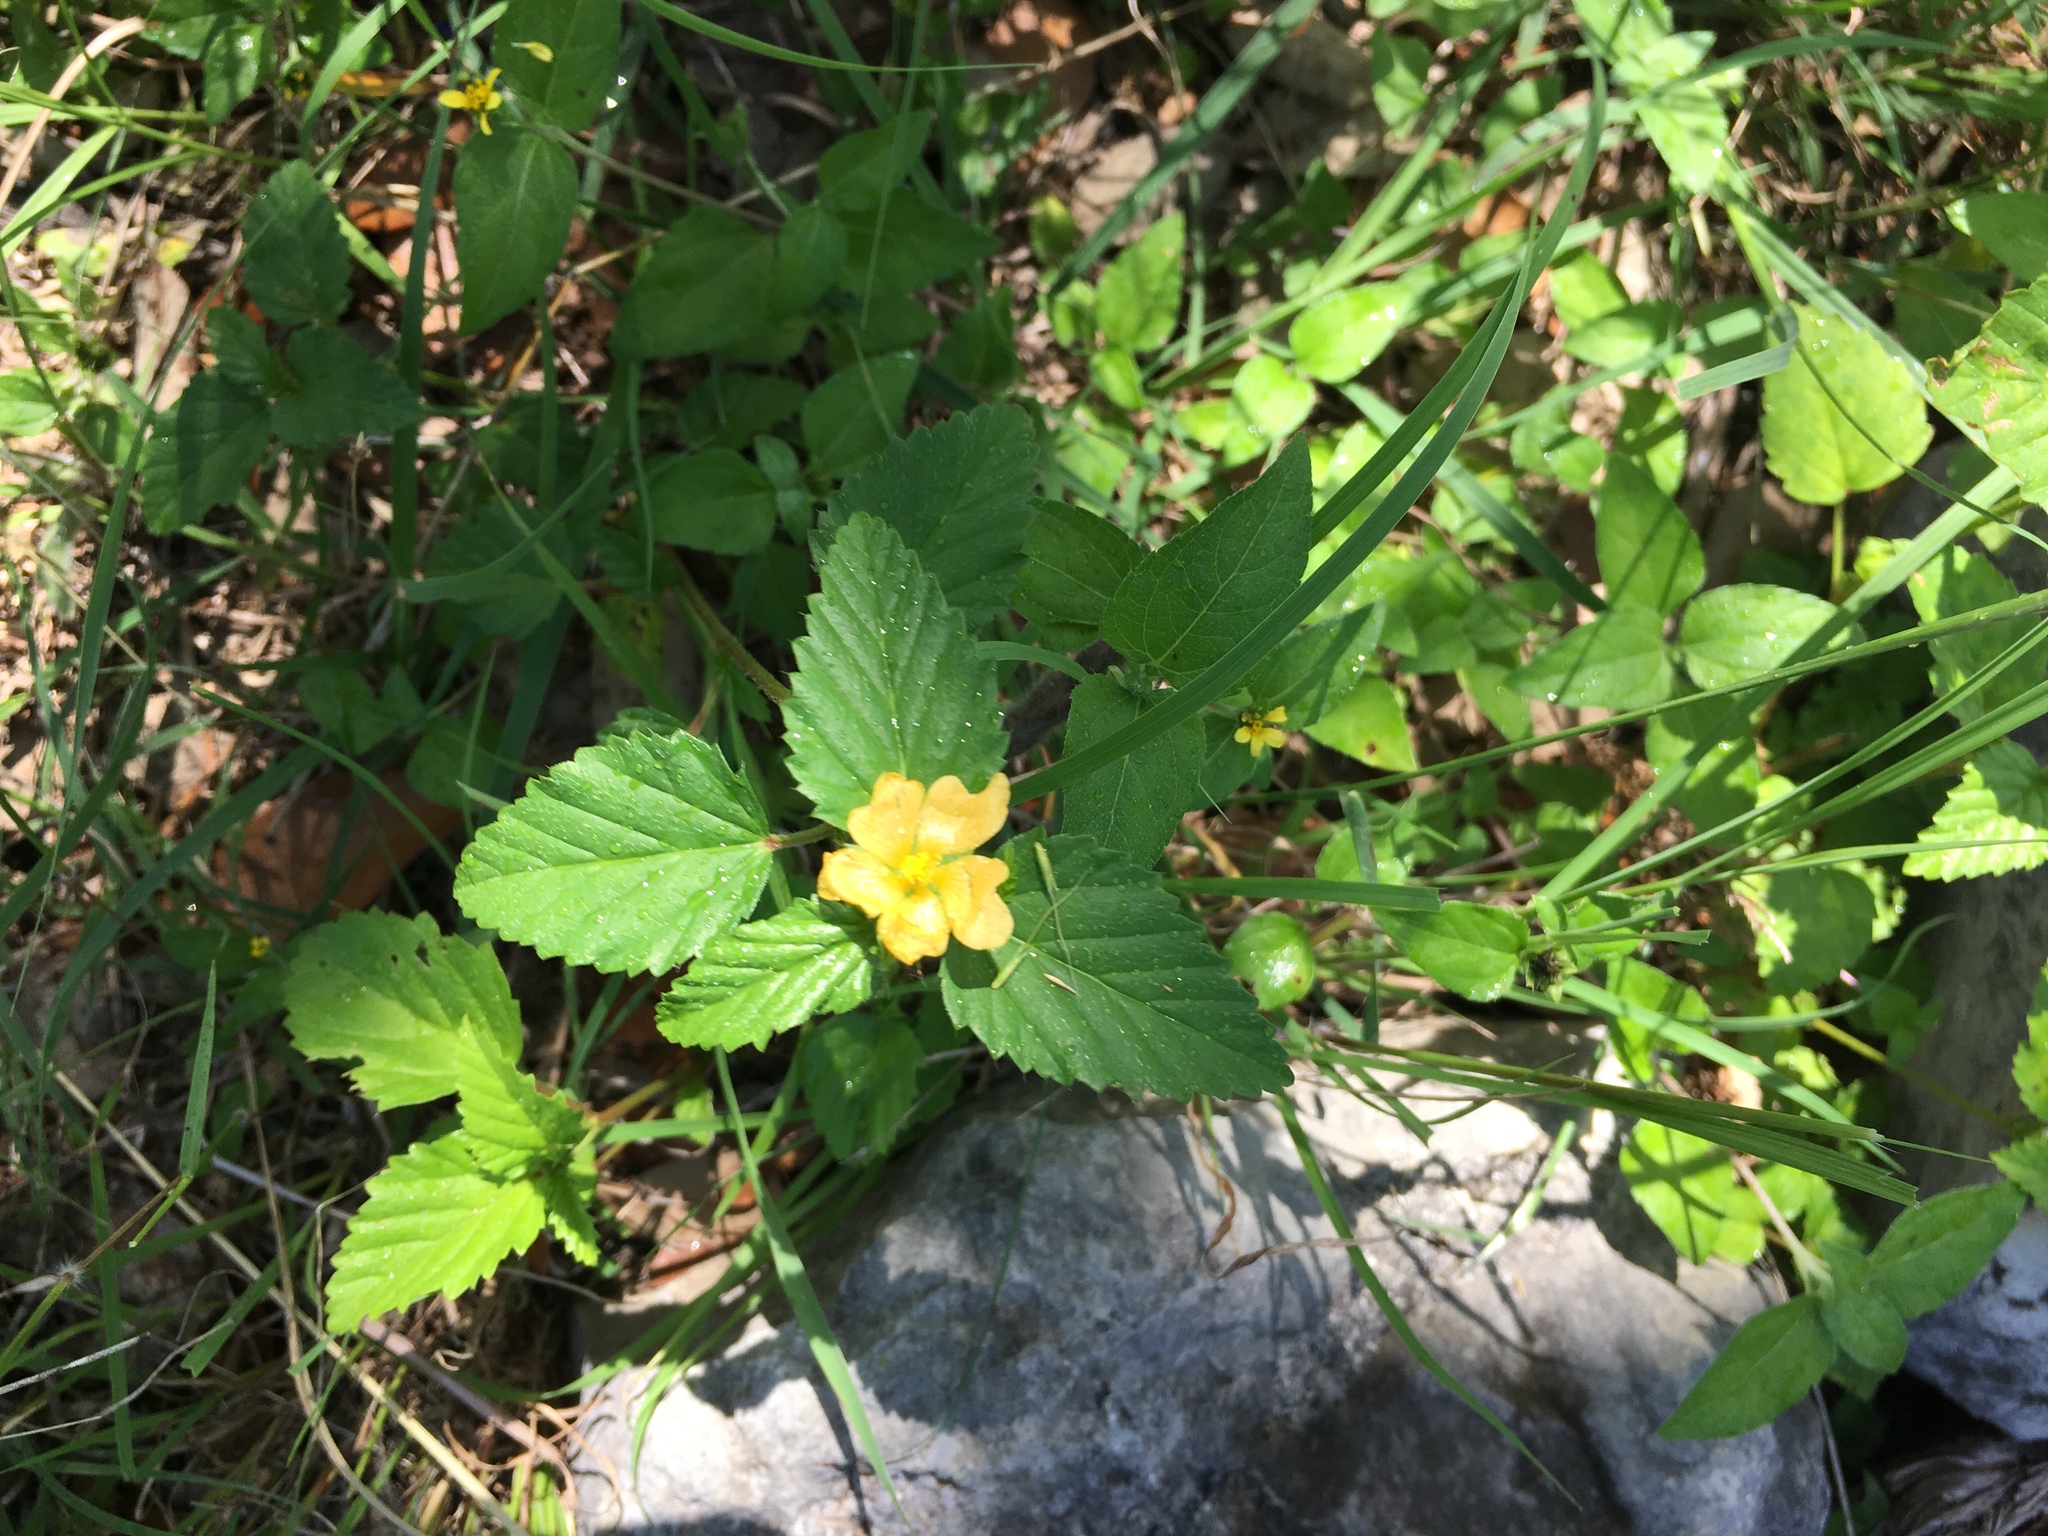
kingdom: Plantae
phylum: Tracheophyta
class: Magnoliopsida
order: Malvales
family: Malvaceae
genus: Malvastrum
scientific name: Malvastrum coromandelianum
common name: Threelobe false mallow
